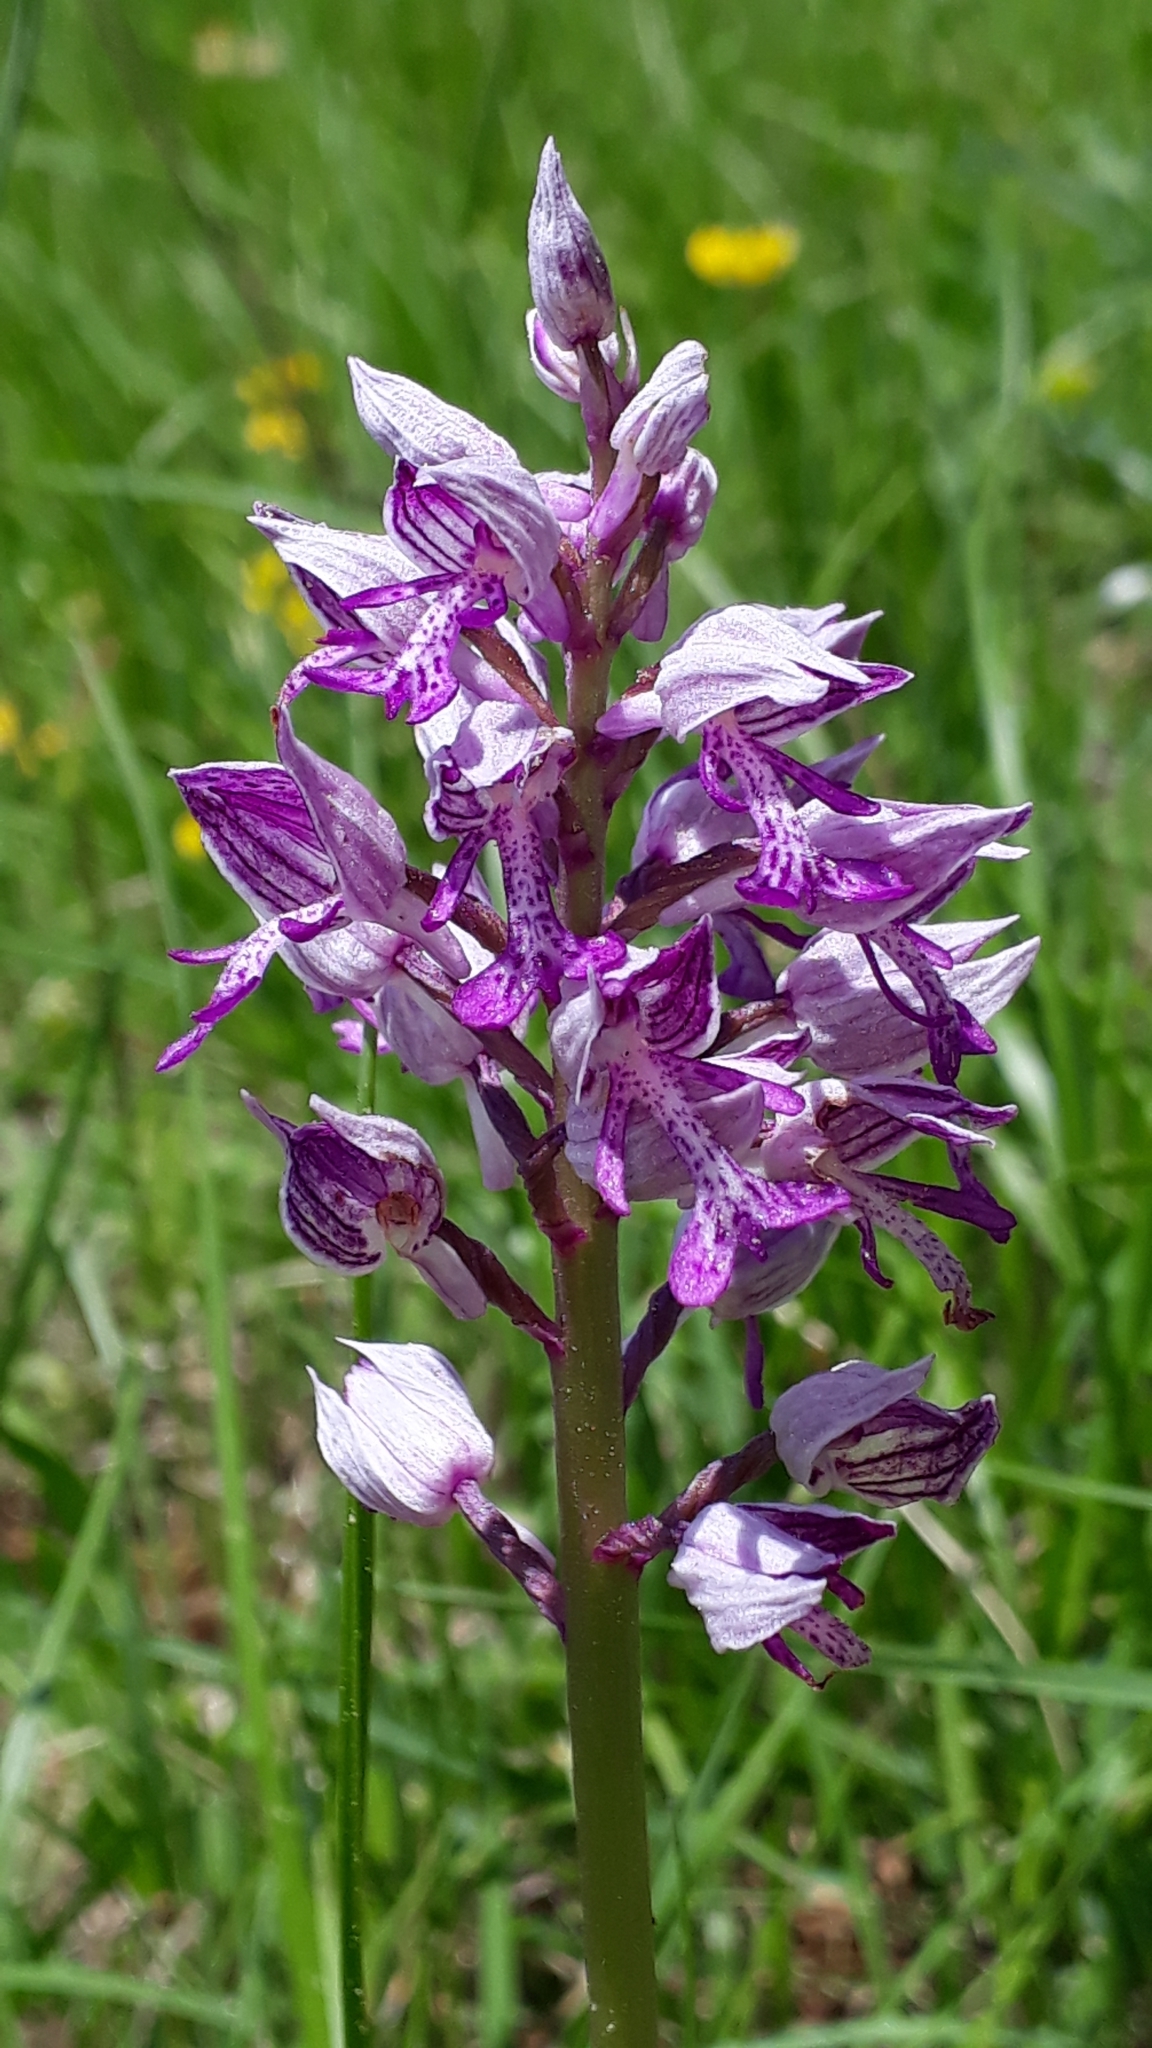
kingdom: Plantae
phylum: Tracheophyta
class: Liliopsida
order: Asparagales
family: Orchidaceae
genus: Orchis
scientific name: Orchis militaris
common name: Military orchid
